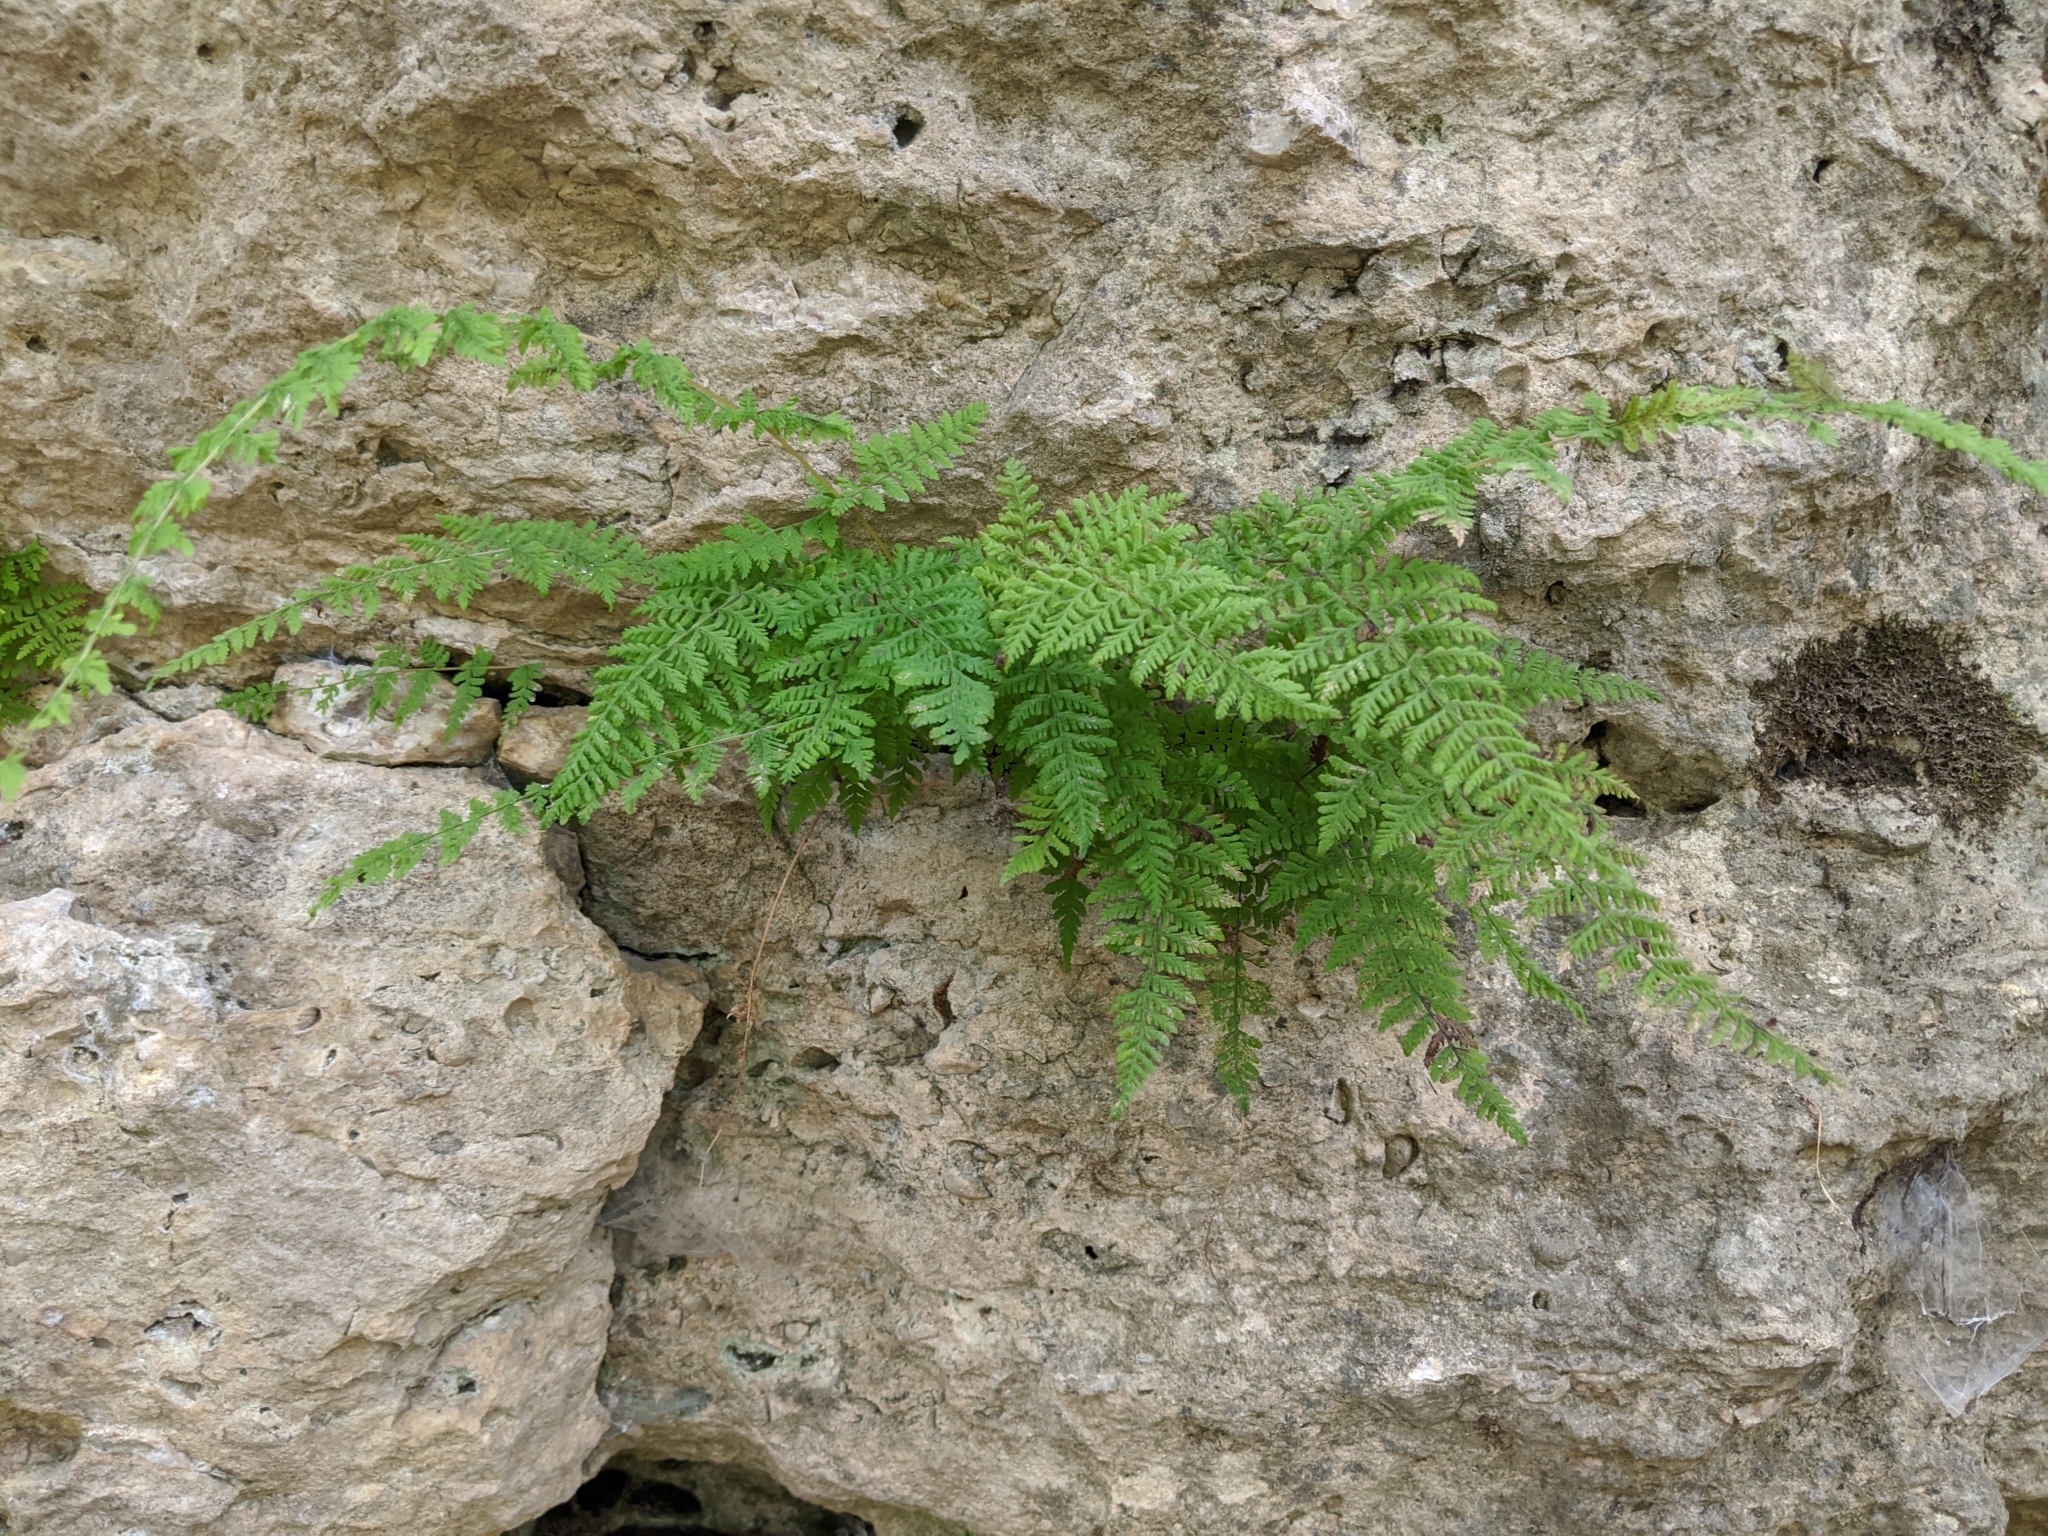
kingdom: Plantae
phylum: Tracheophyta
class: Polypodiopsida
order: Polypodiales
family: Cystopteridaceae
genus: Cystopteris
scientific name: Cystopteris bulbifera
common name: Bulblet bladder fern
